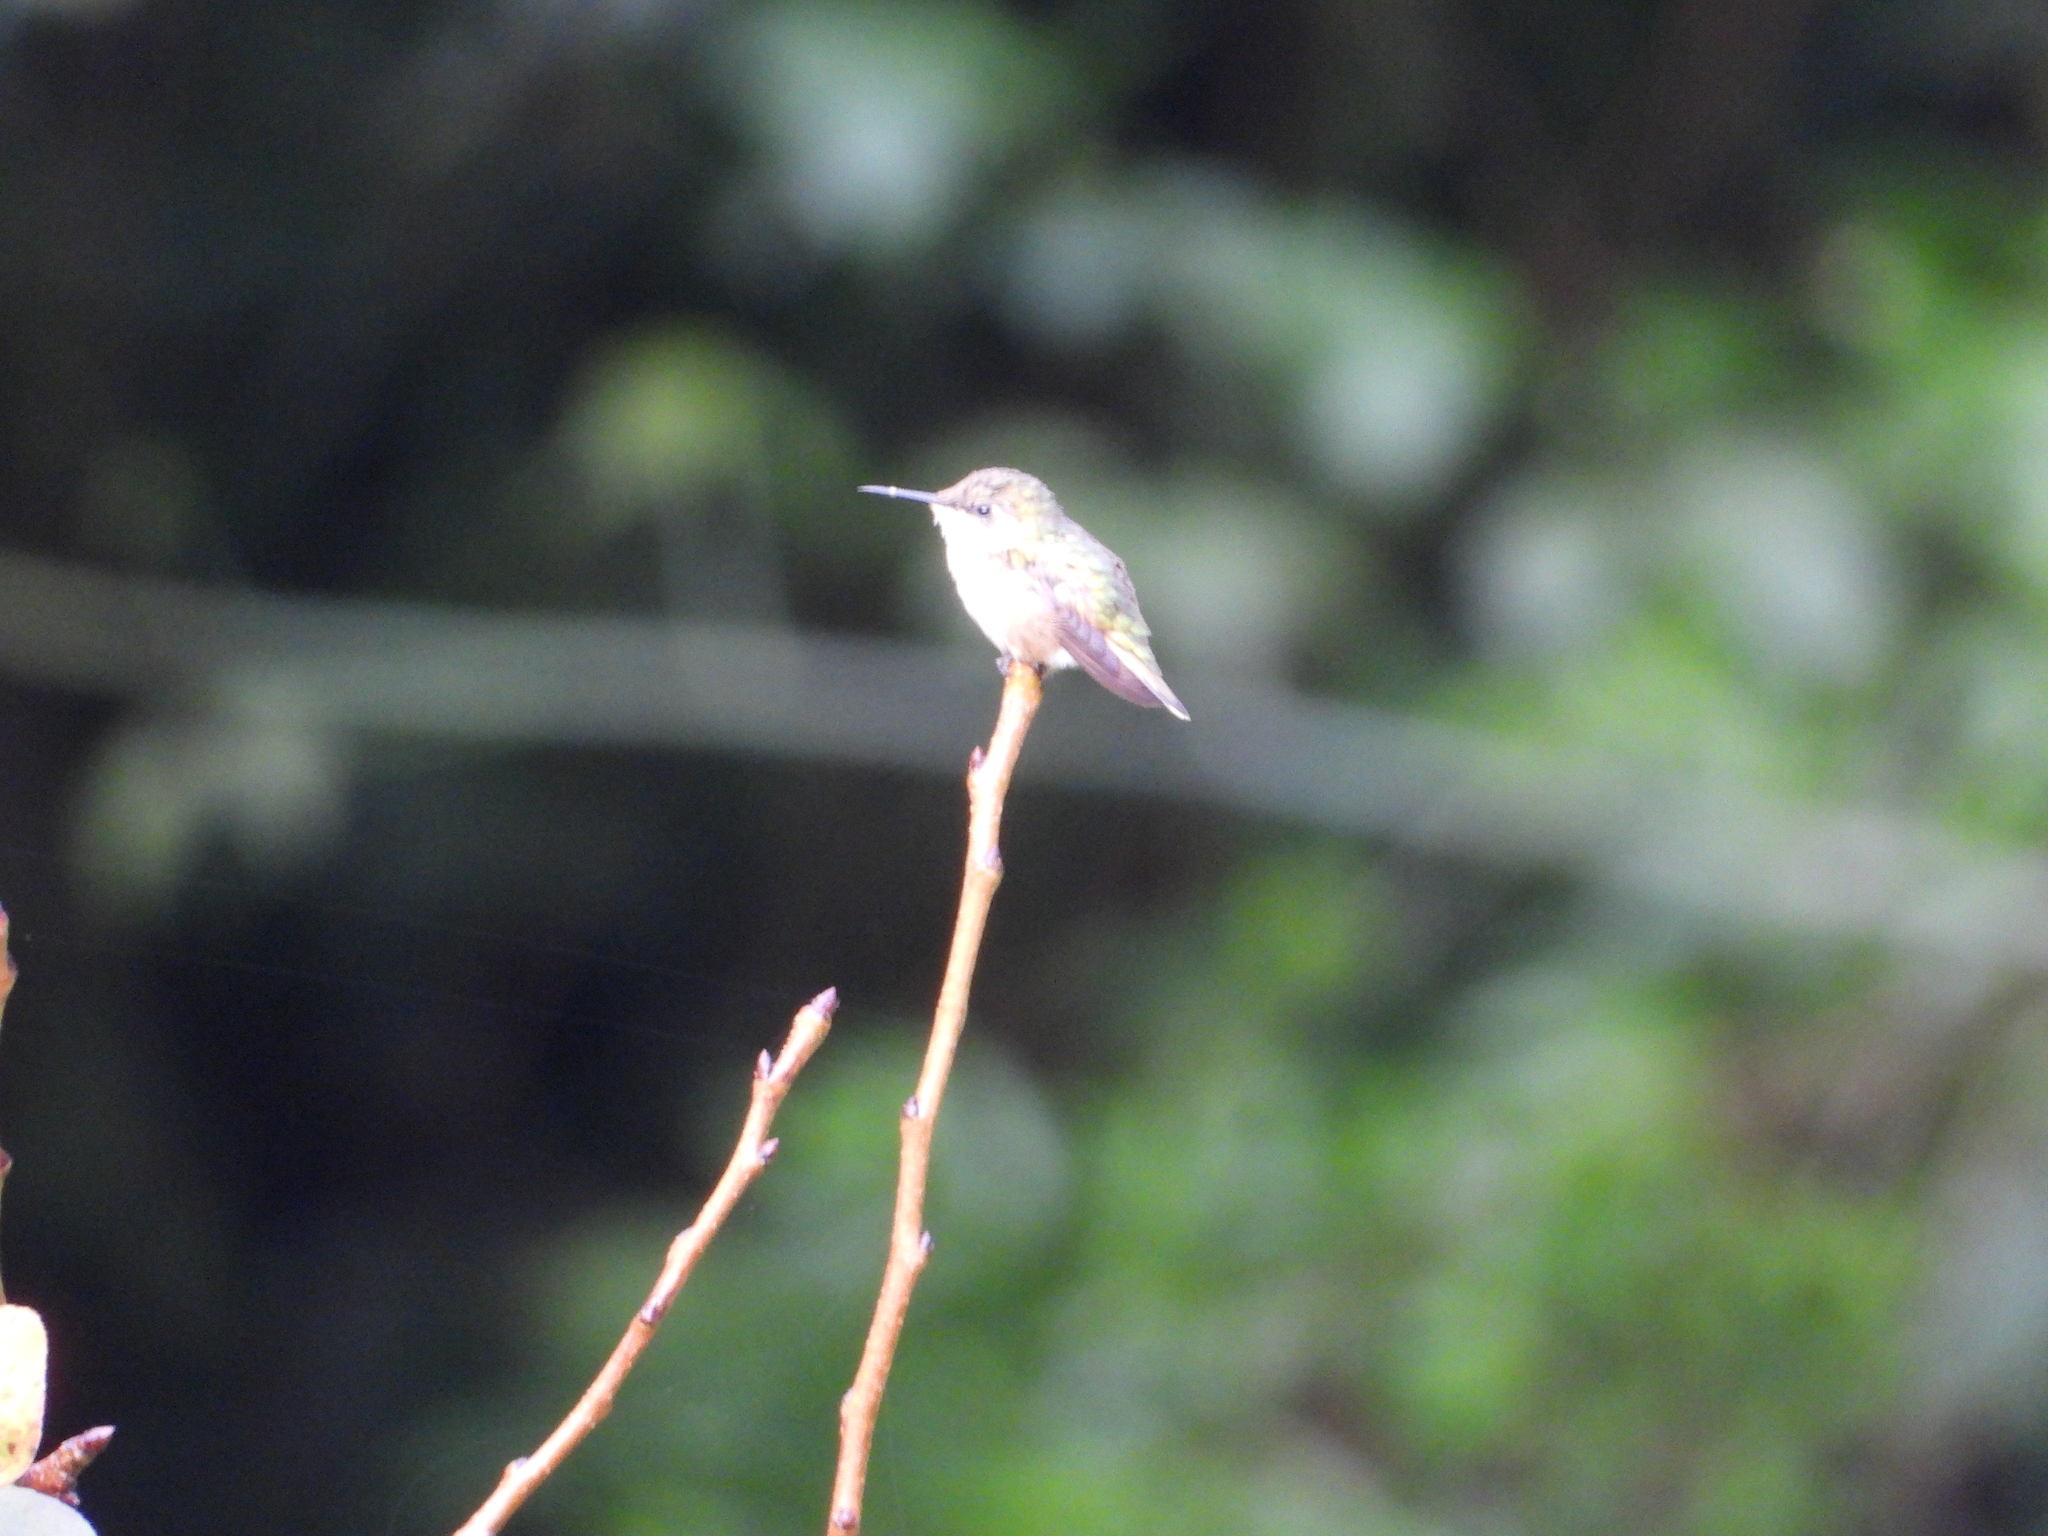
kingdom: Animalia
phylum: Chordata
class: Aves
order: Apodiformes
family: Trochilidae
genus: Selasphorus
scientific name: Selasphorus heloisa
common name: Bumblebee hummingbird
